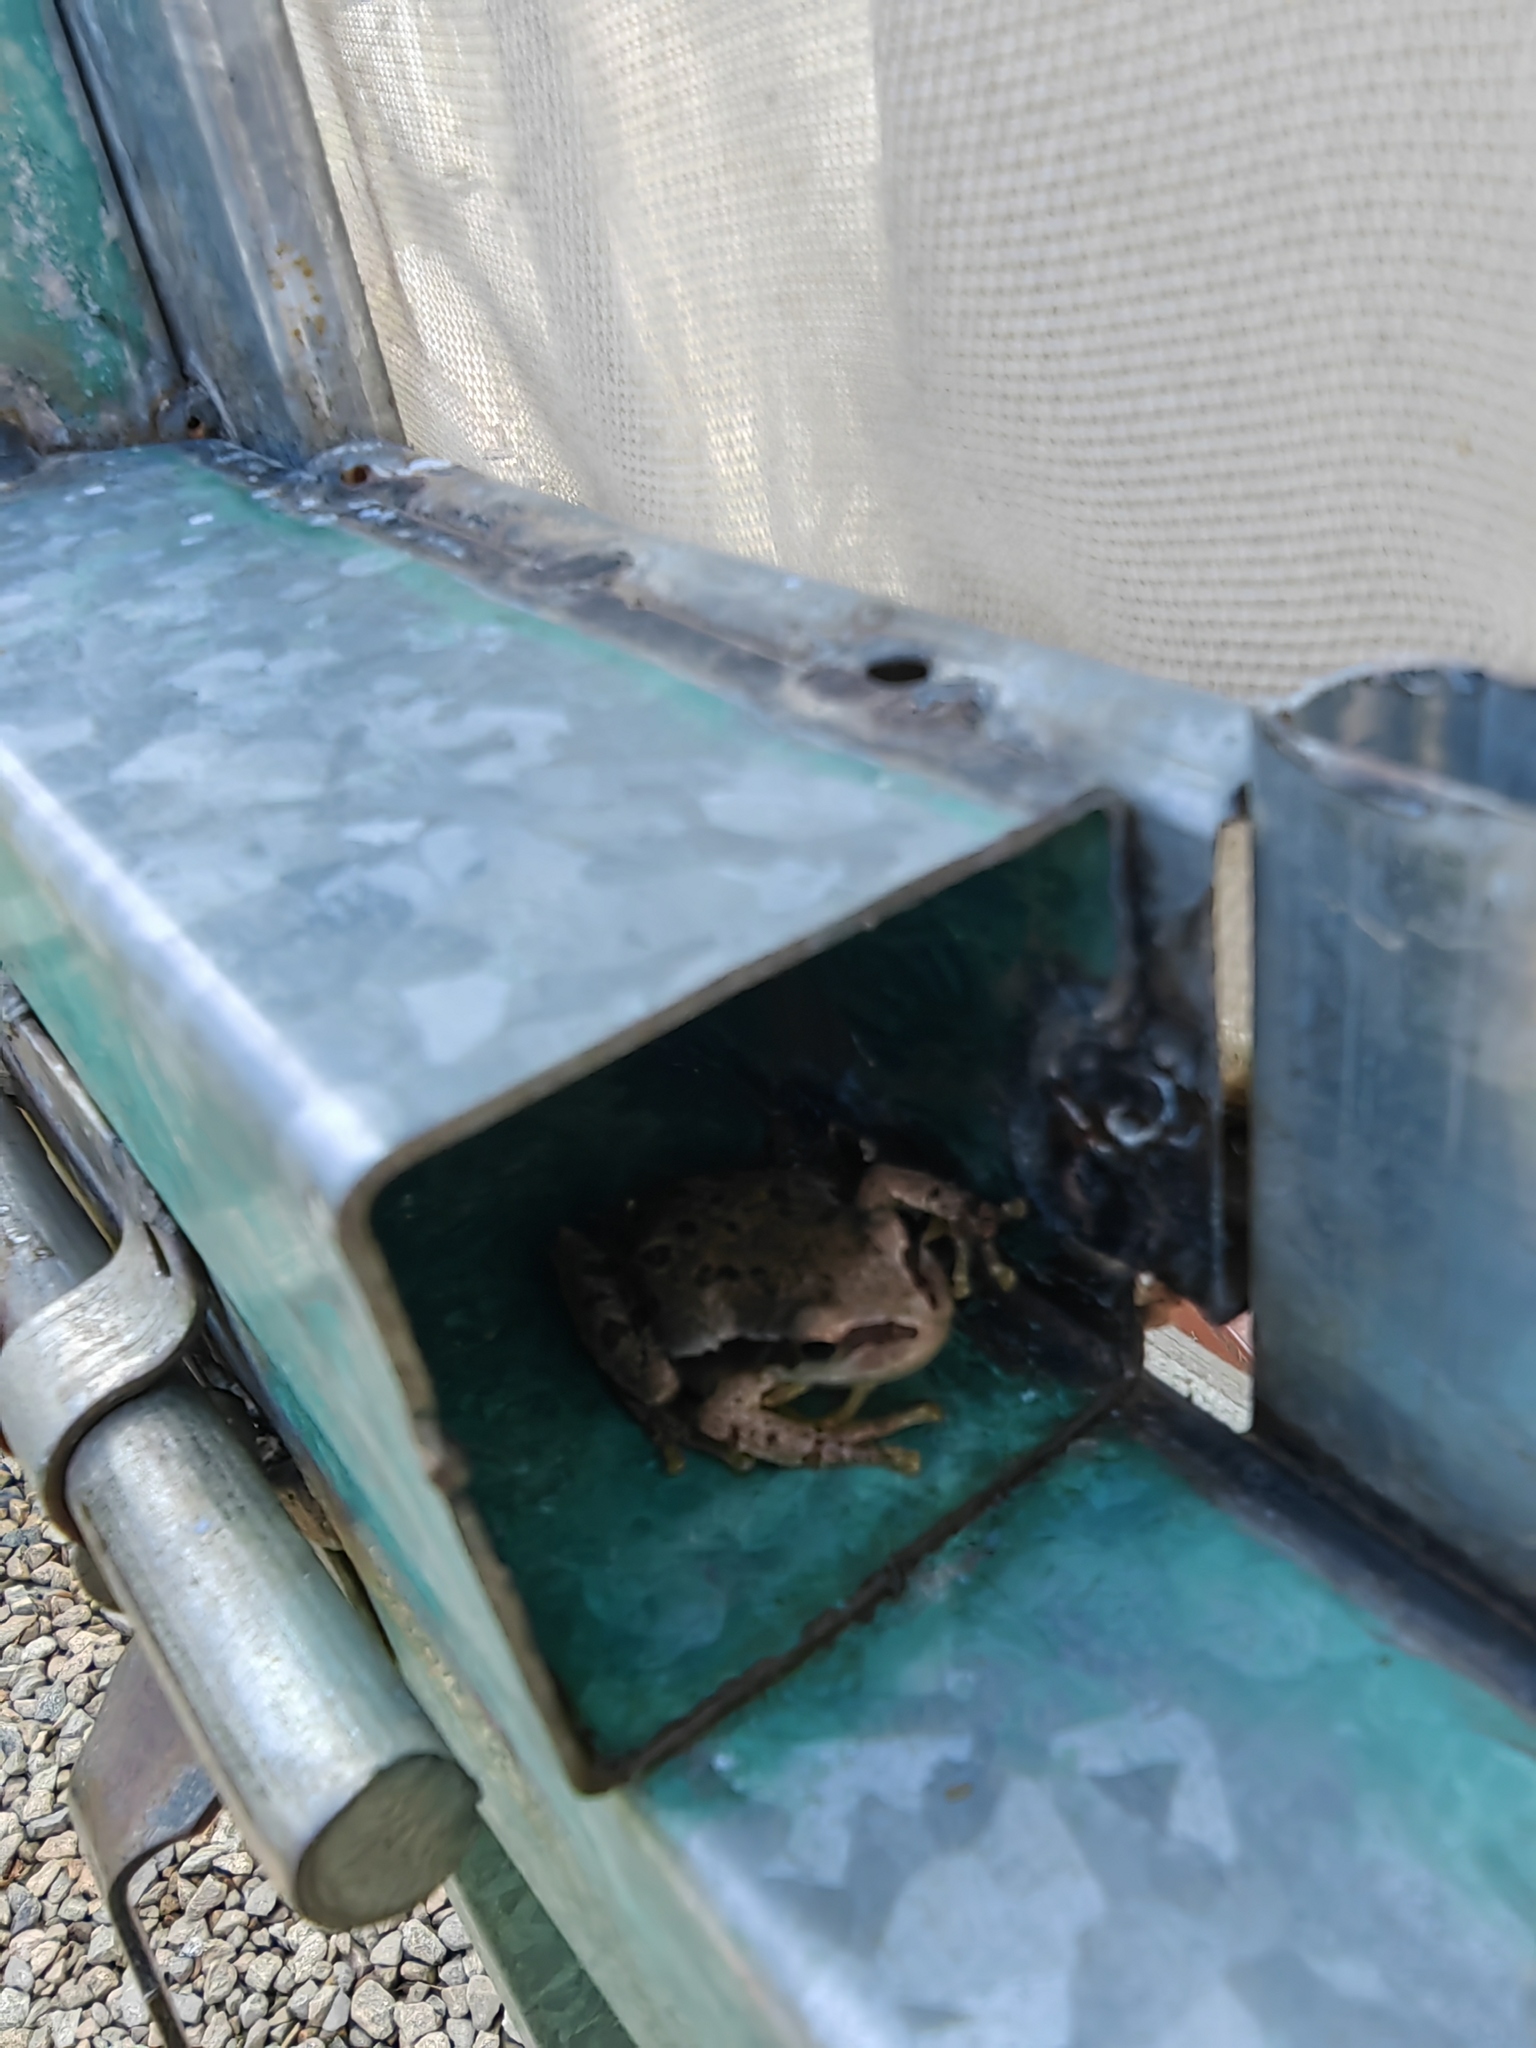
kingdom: Animalia
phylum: Chordata
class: Amphibia
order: Anura
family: Hylidae
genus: Dryophytes
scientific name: Dryophytes euphorbiaceus
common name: Southern highland treefrog
